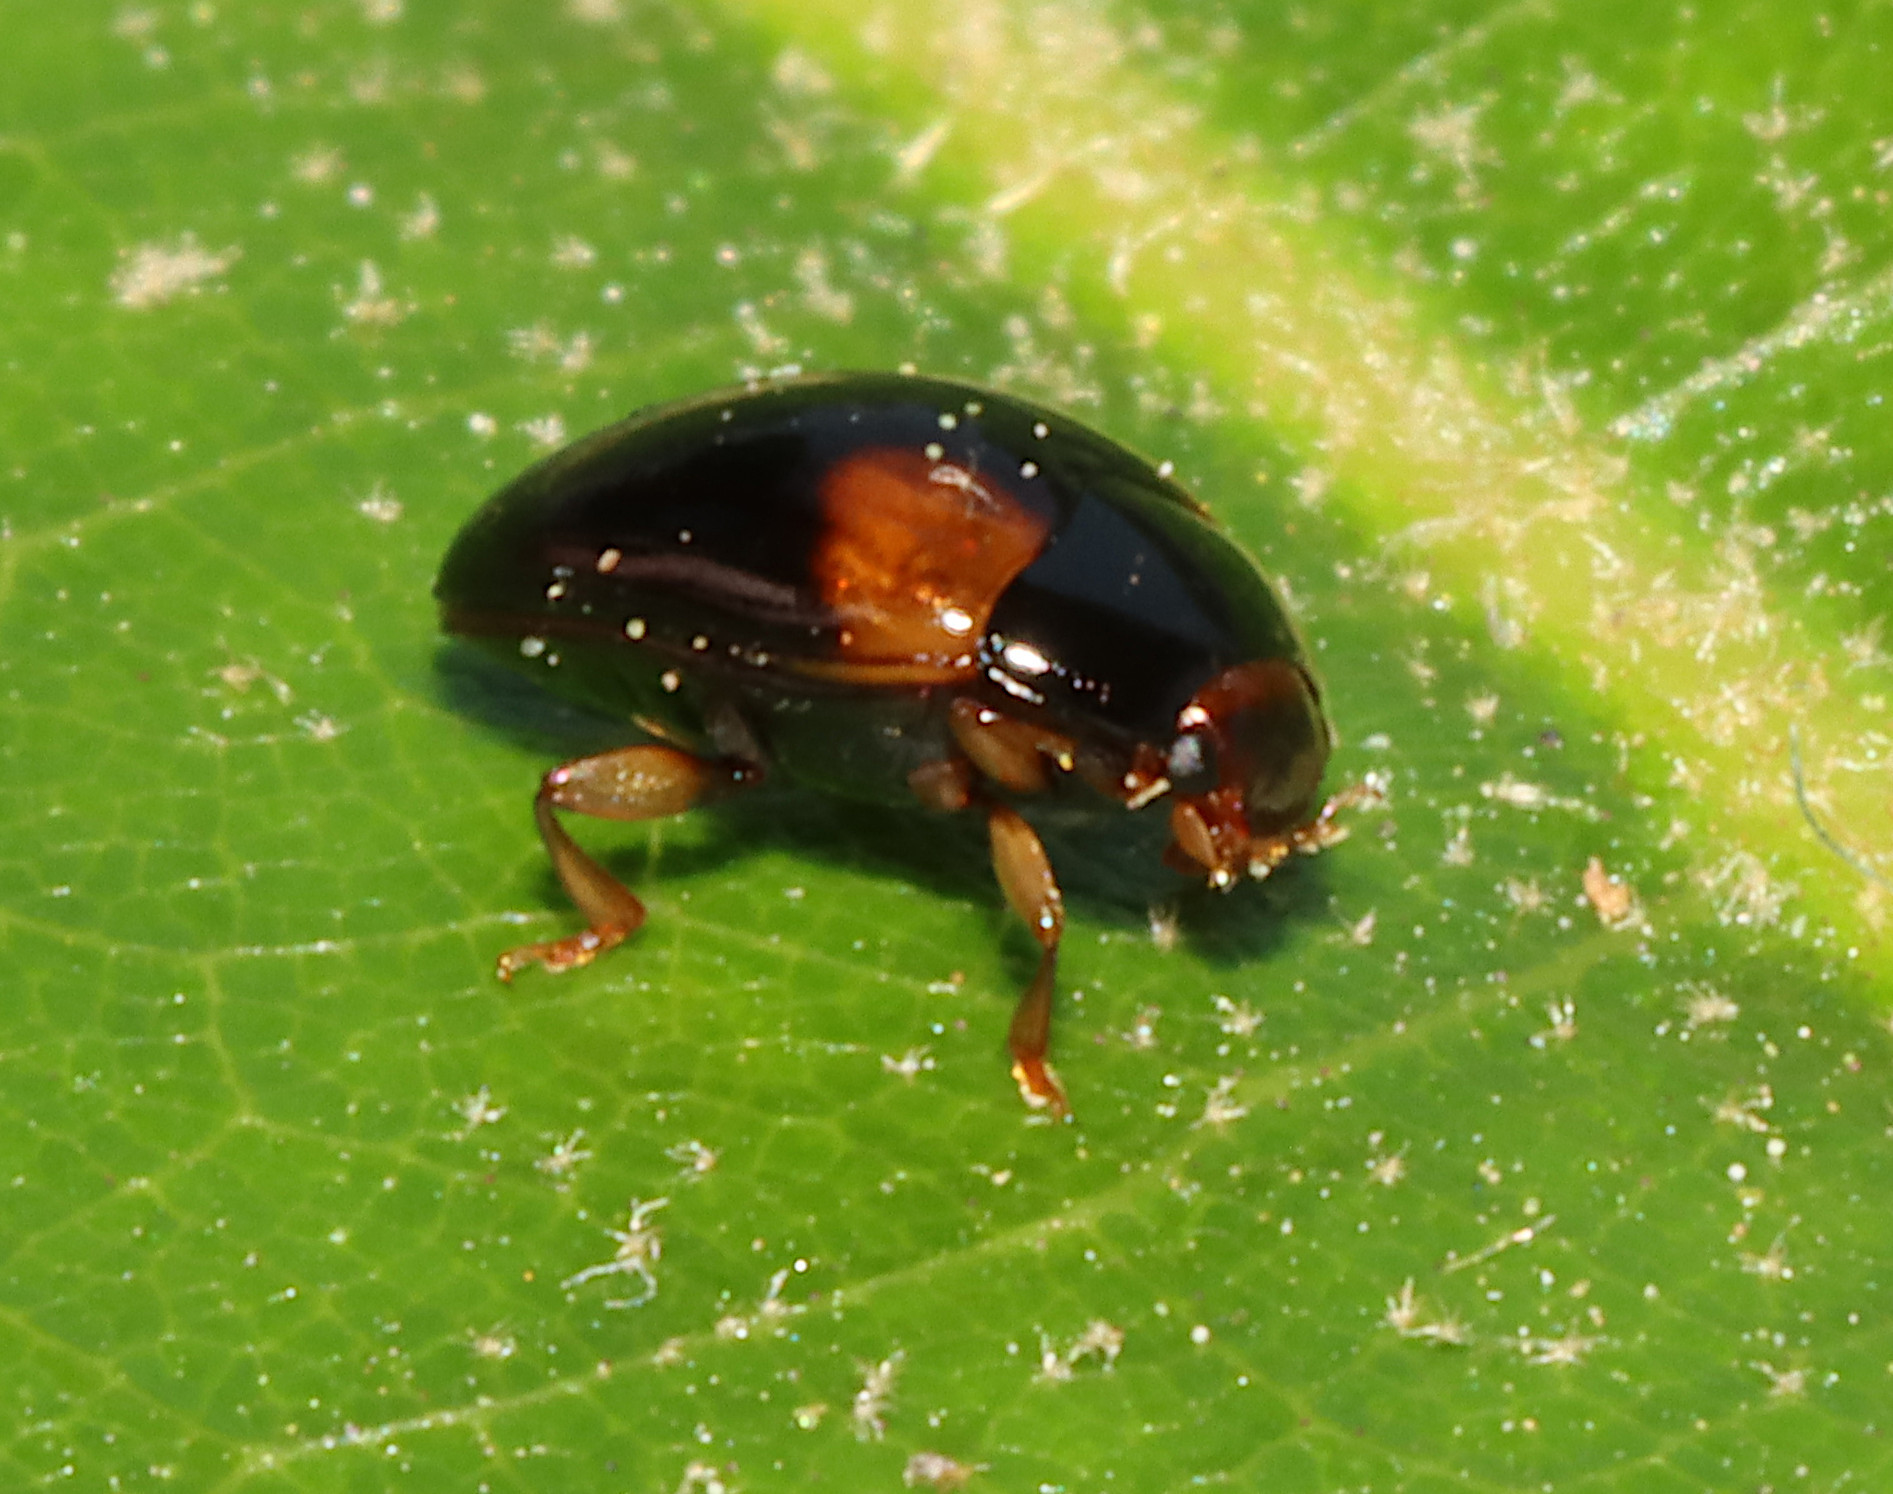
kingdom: Animalia
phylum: Arthropoda
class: Insecta
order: Coleoptera
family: Erotylidae
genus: Tritoma
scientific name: Tritoma humeralis
